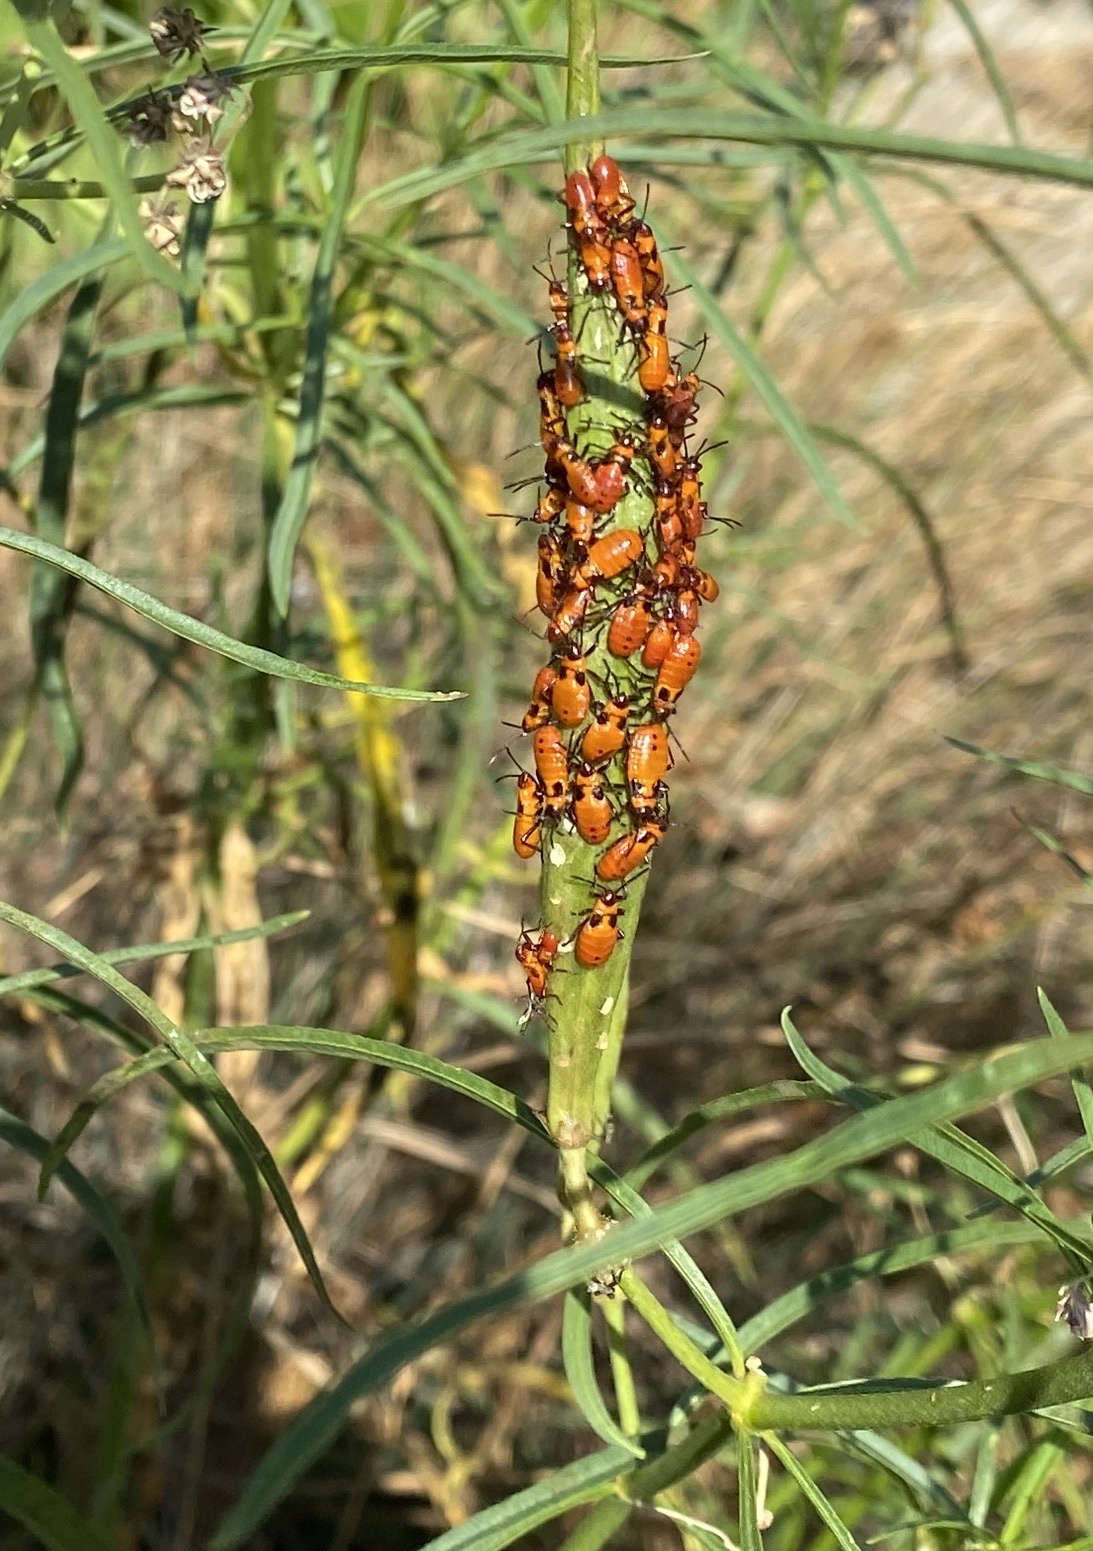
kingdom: Animalia
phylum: Arthropoda
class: Insecta
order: Hemiptera
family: Lygaeidae
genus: Oncopeltus
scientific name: Oncopeltus fasciatus
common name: Large milkweed bug
